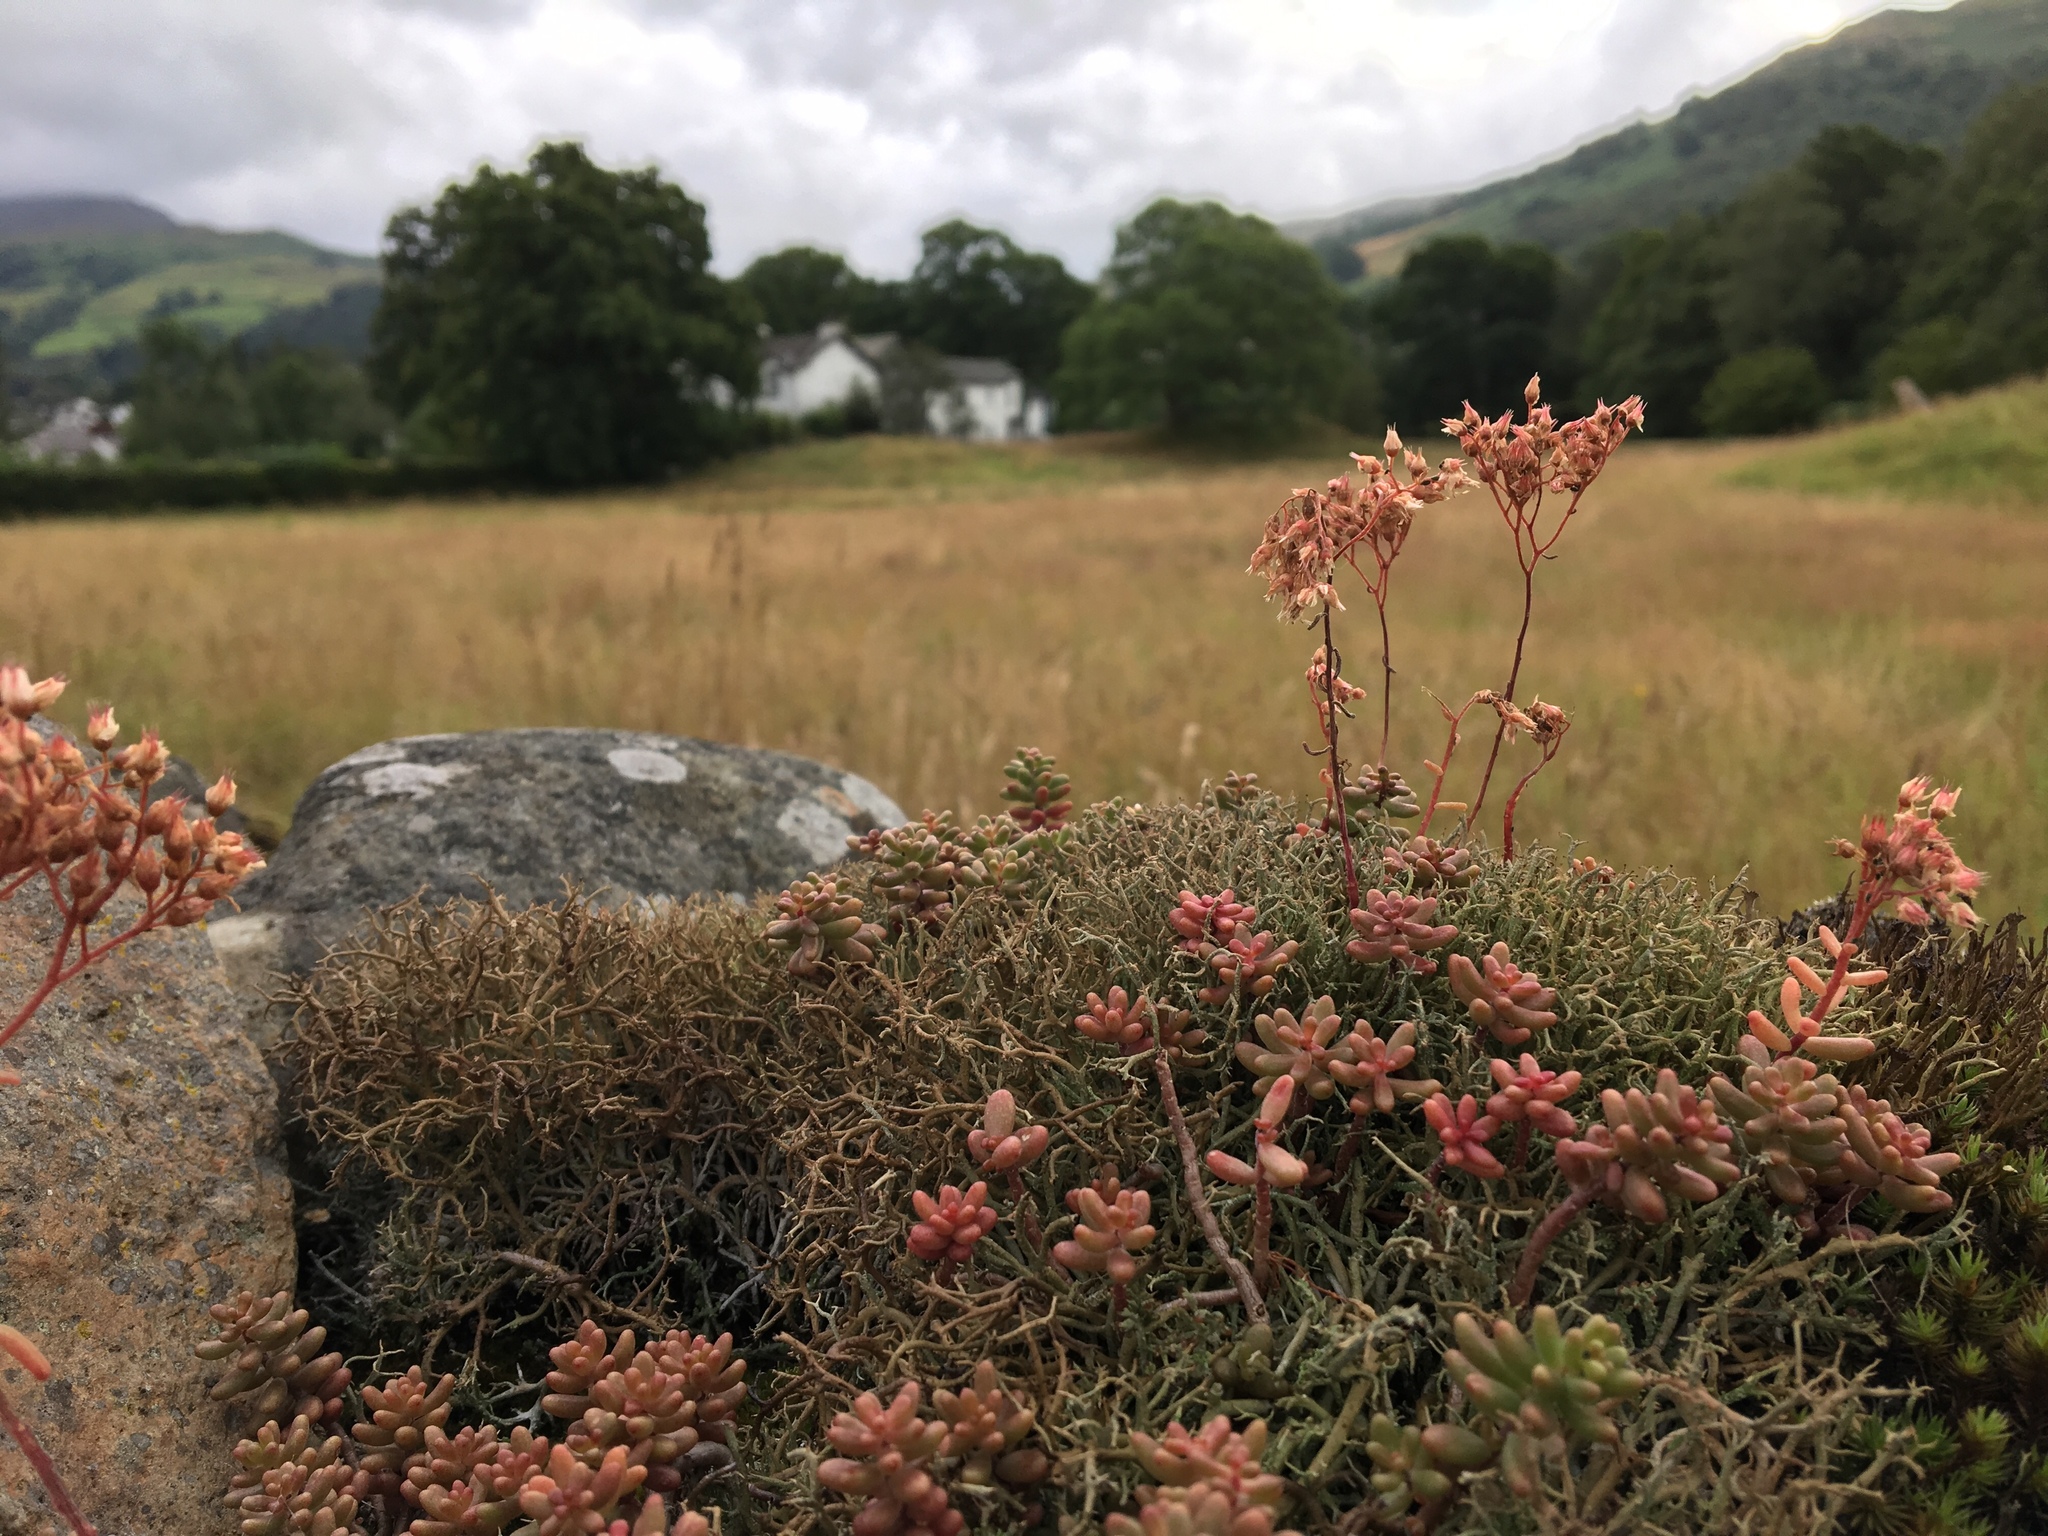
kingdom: Plantae
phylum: Tracheophyta
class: Magnoliopsida
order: Saxifragales
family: Crassulaceae
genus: Sedum
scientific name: Sedum album
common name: White stonecrop
